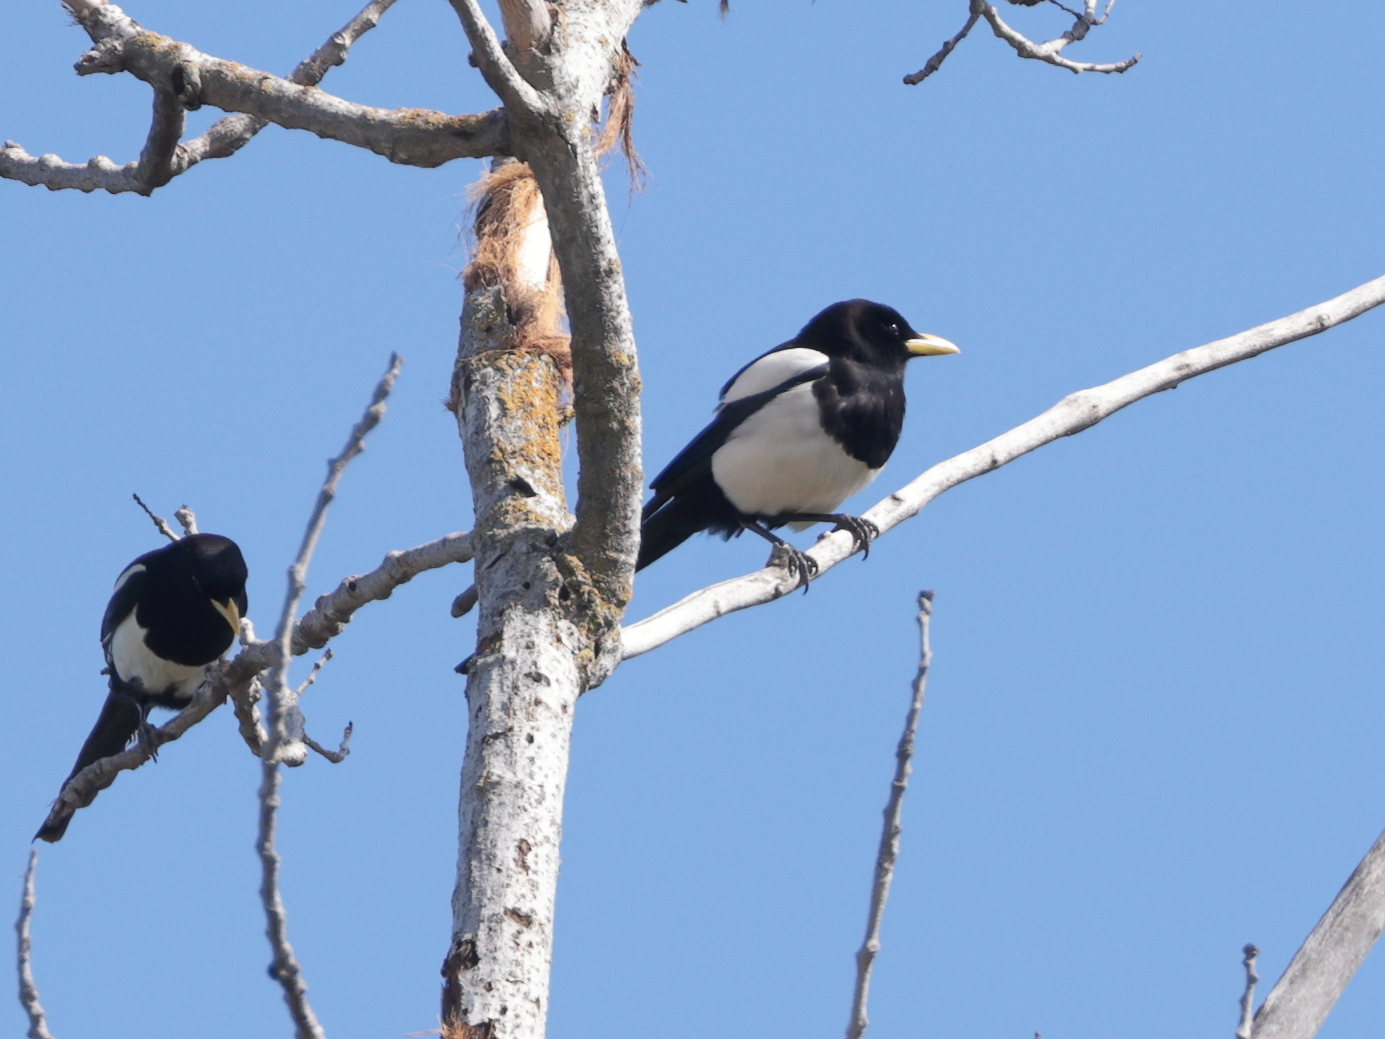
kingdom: Animalia
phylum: Chordata
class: Aves
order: Passeriformes
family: Corvidae
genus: Pica
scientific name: Pica nuttalli
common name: Yellow-billed magpie
